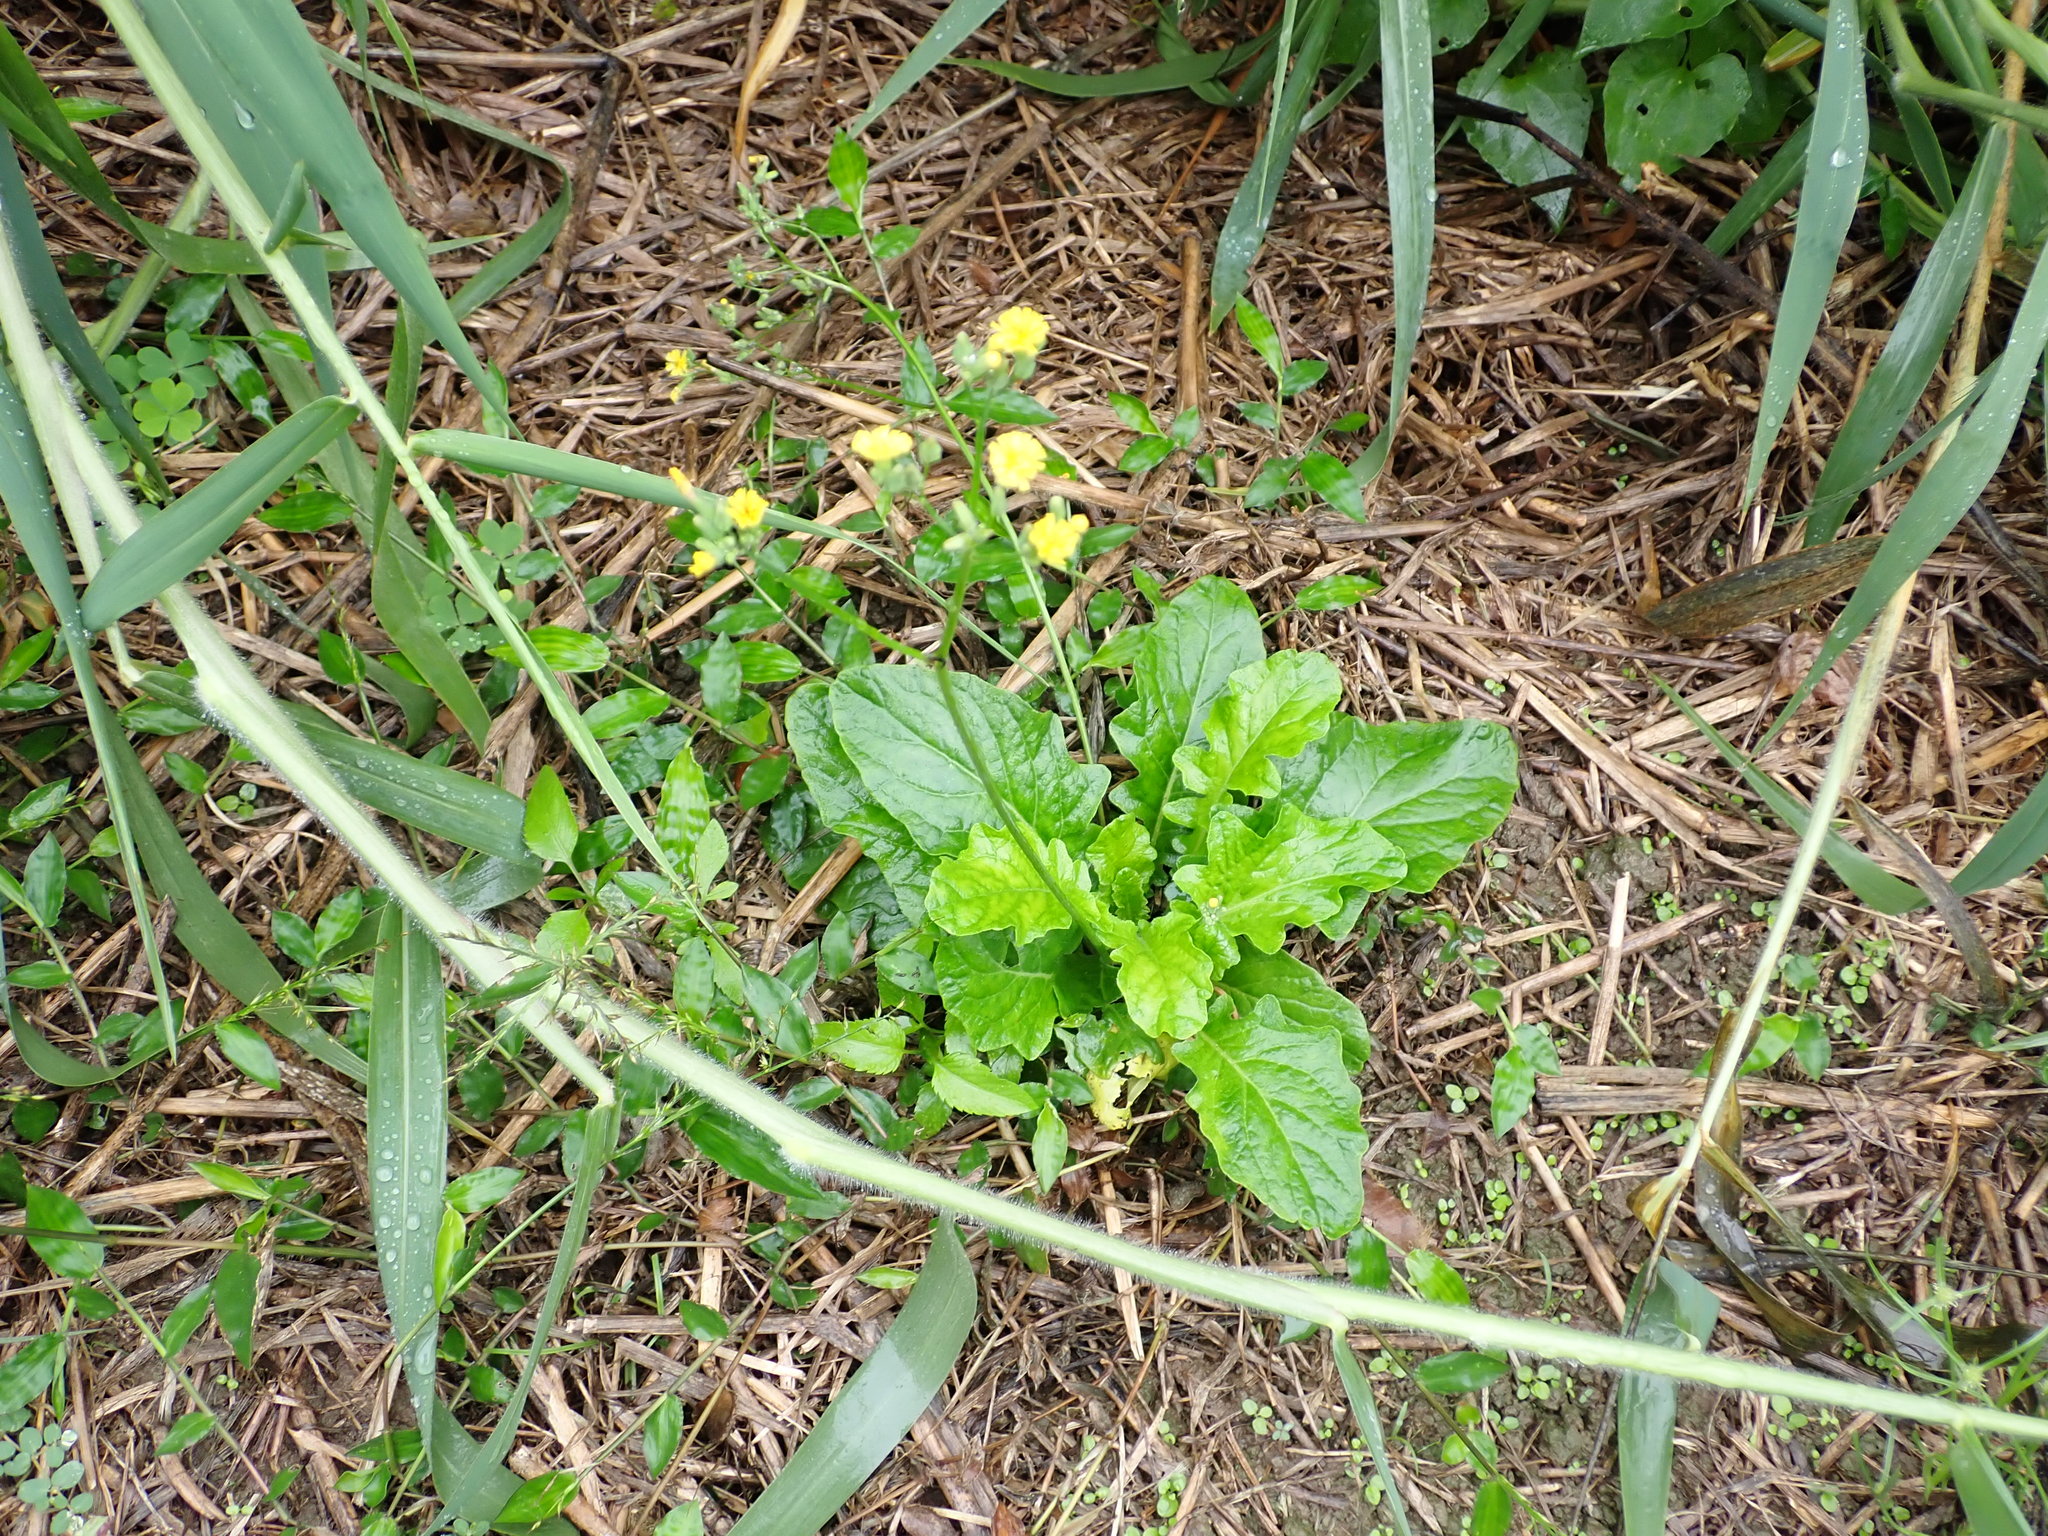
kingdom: Plantae
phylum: Tracheophyta
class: Magnoliopsida
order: Asterales
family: Asteraceae
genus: Youngia
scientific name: Youngia japonica
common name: Oriental false hawksbeard
